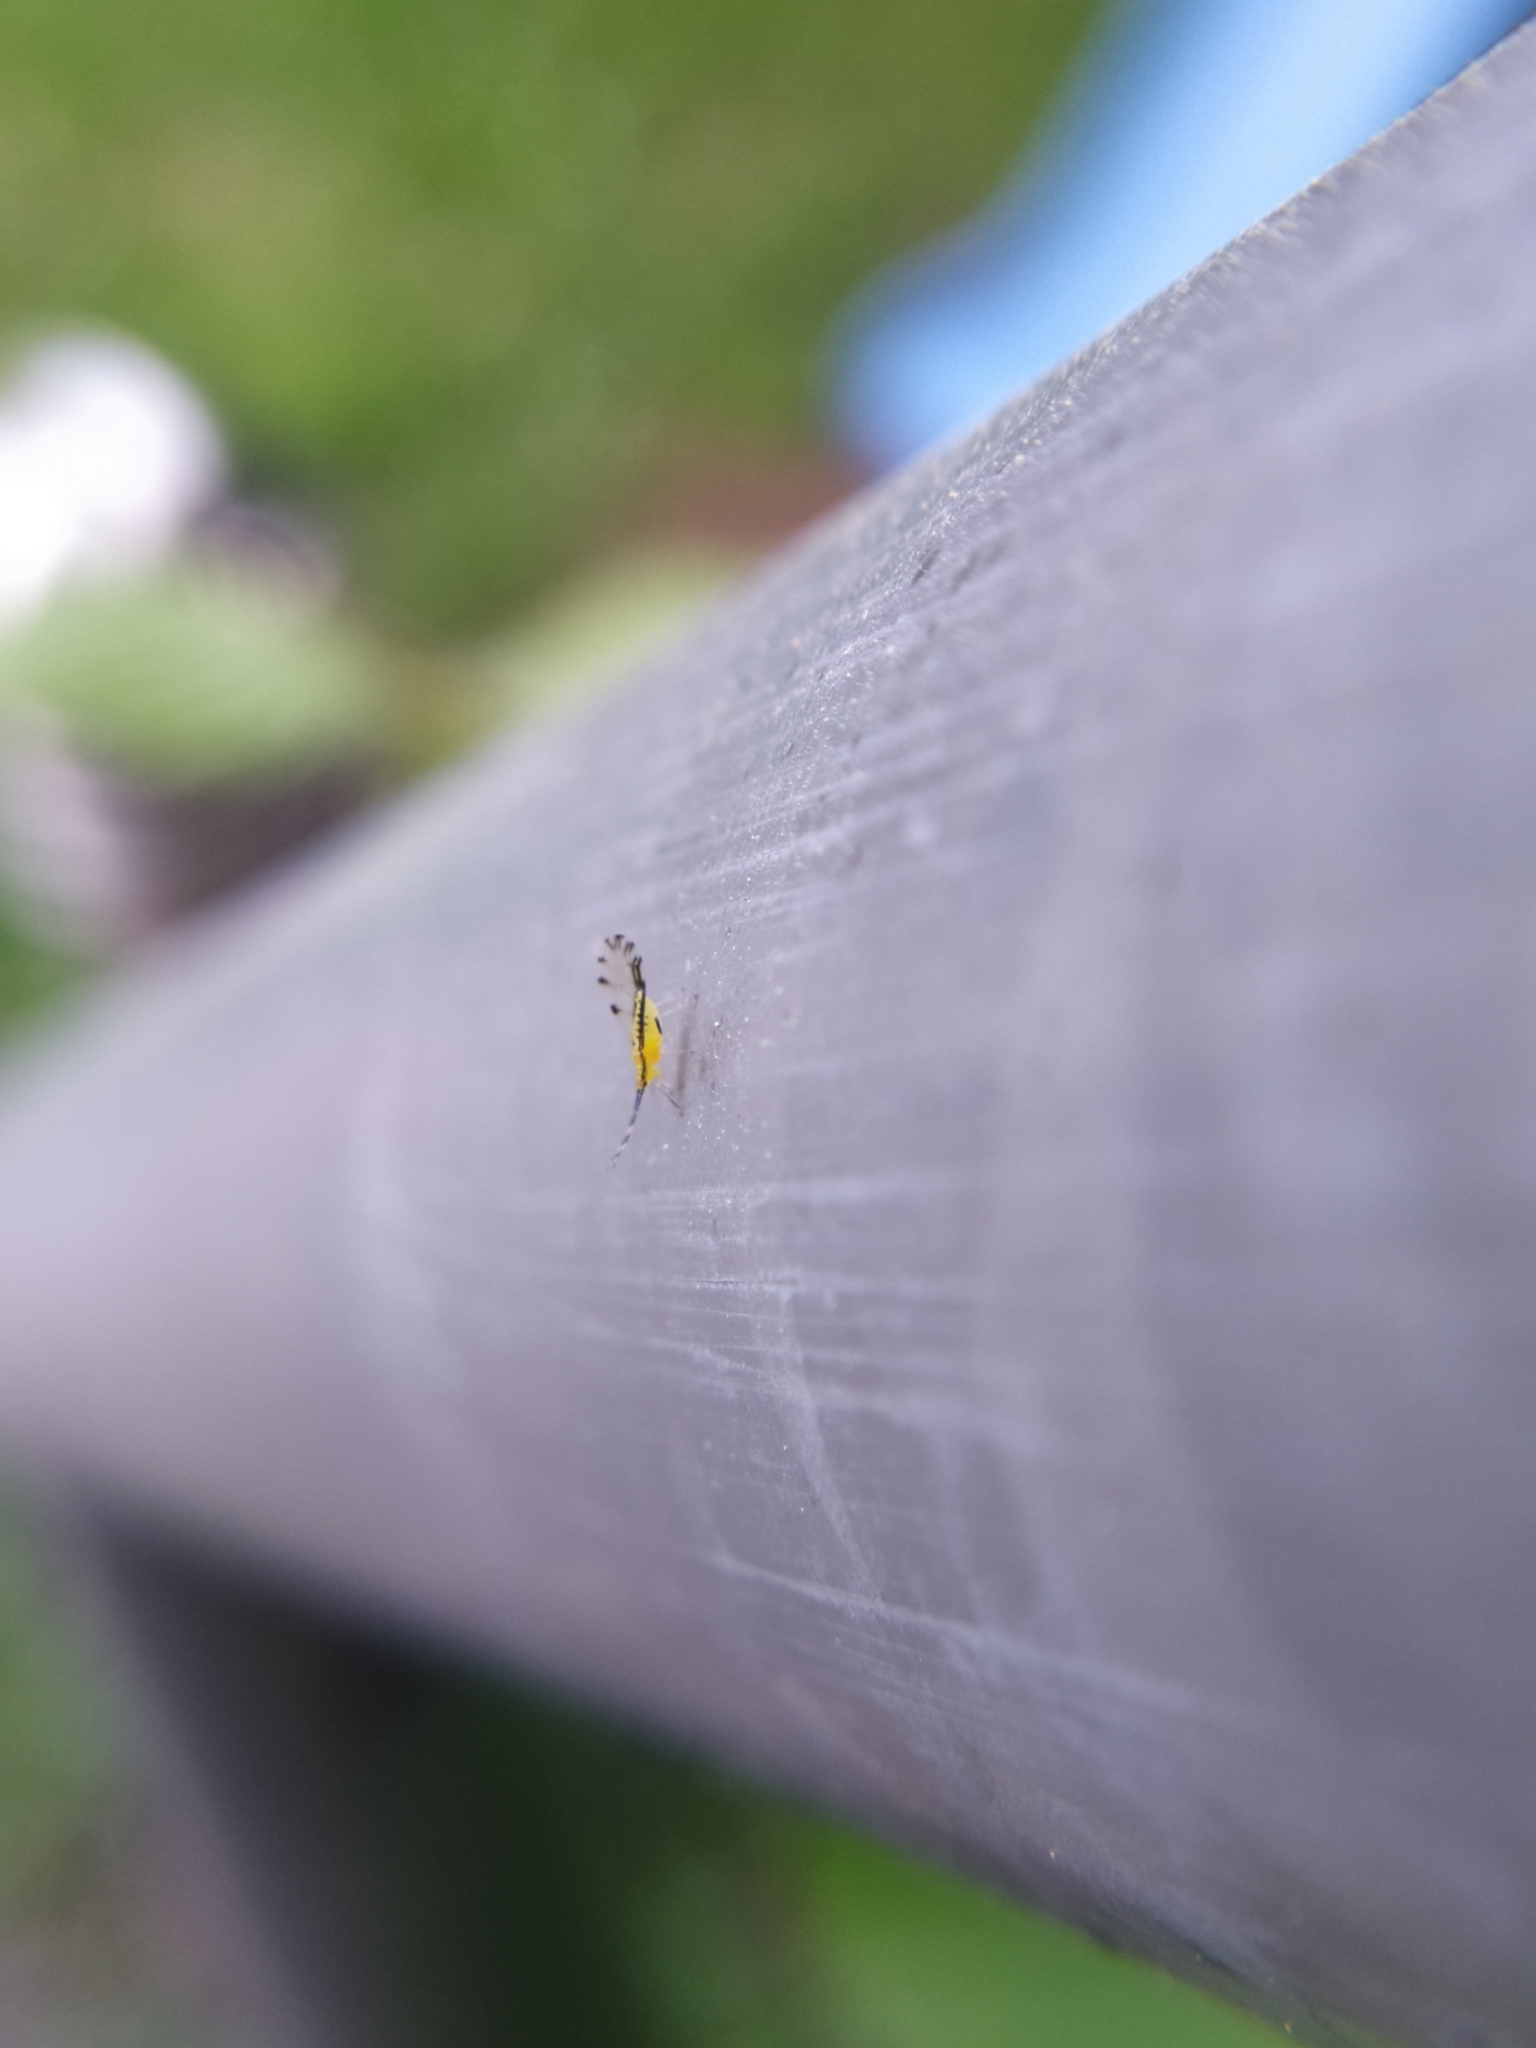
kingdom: Animalia
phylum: Arthropoda
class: Insecta
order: Hemiptera
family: Aphididae
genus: Eucallipterus
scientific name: Eucallipterus tiliae
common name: Aphid
